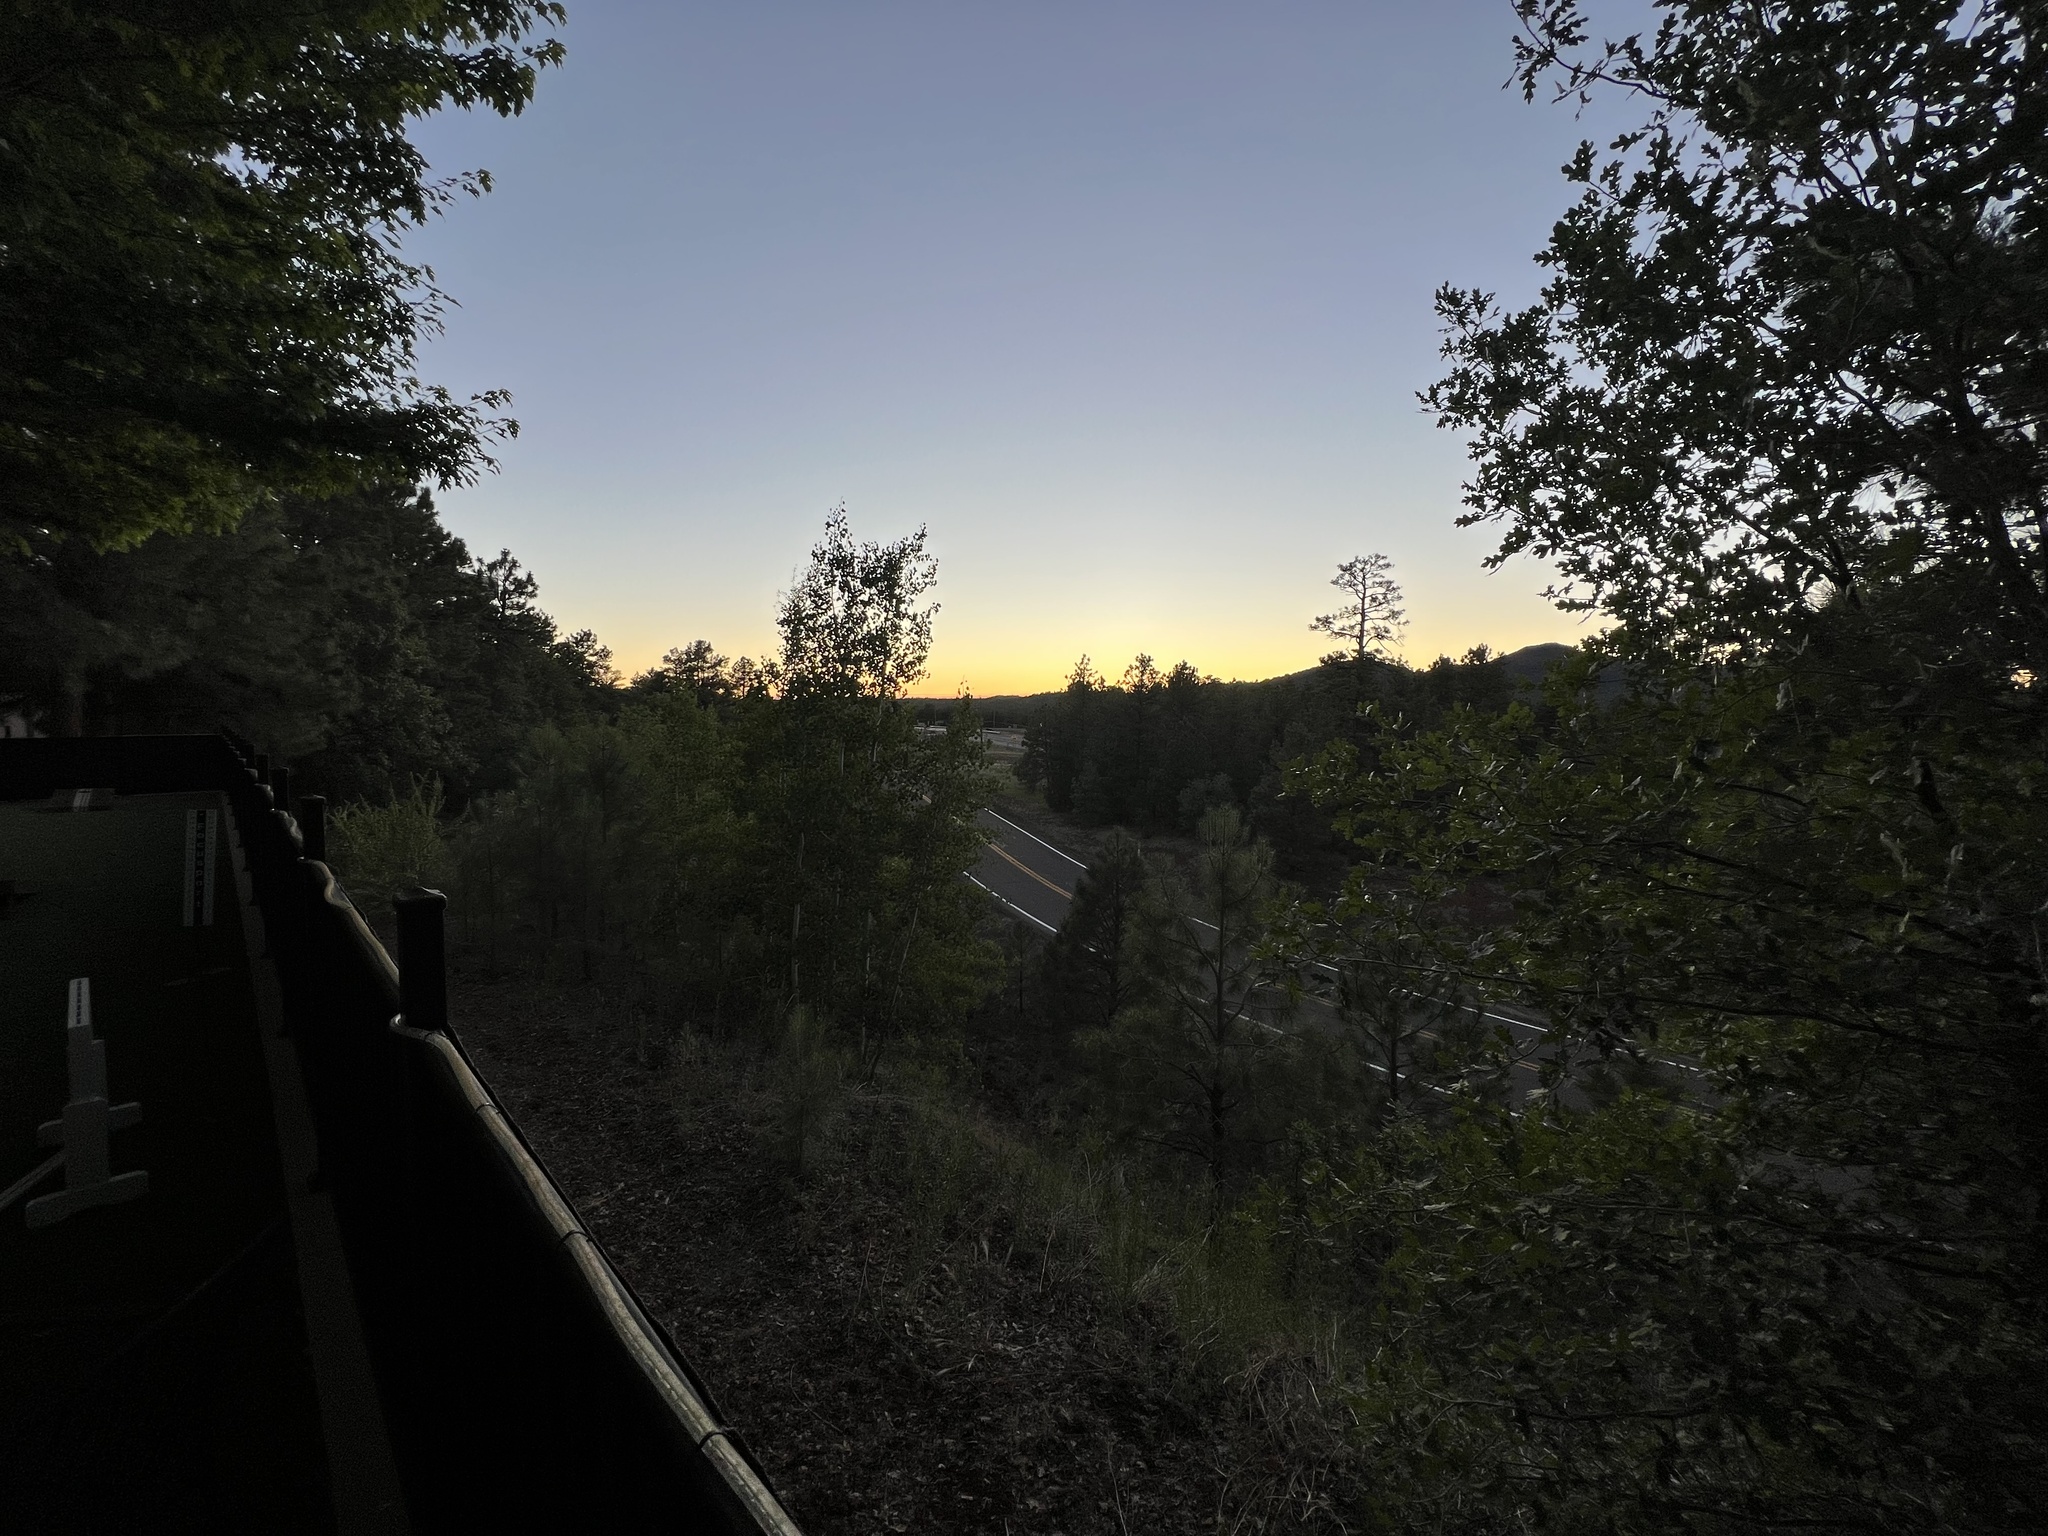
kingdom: Plantae
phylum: Tracheophyta
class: Magnoliopsida
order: Malpighiales
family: Salicaceae
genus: Populus
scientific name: Populus tremuloides
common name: Quaking aspen
